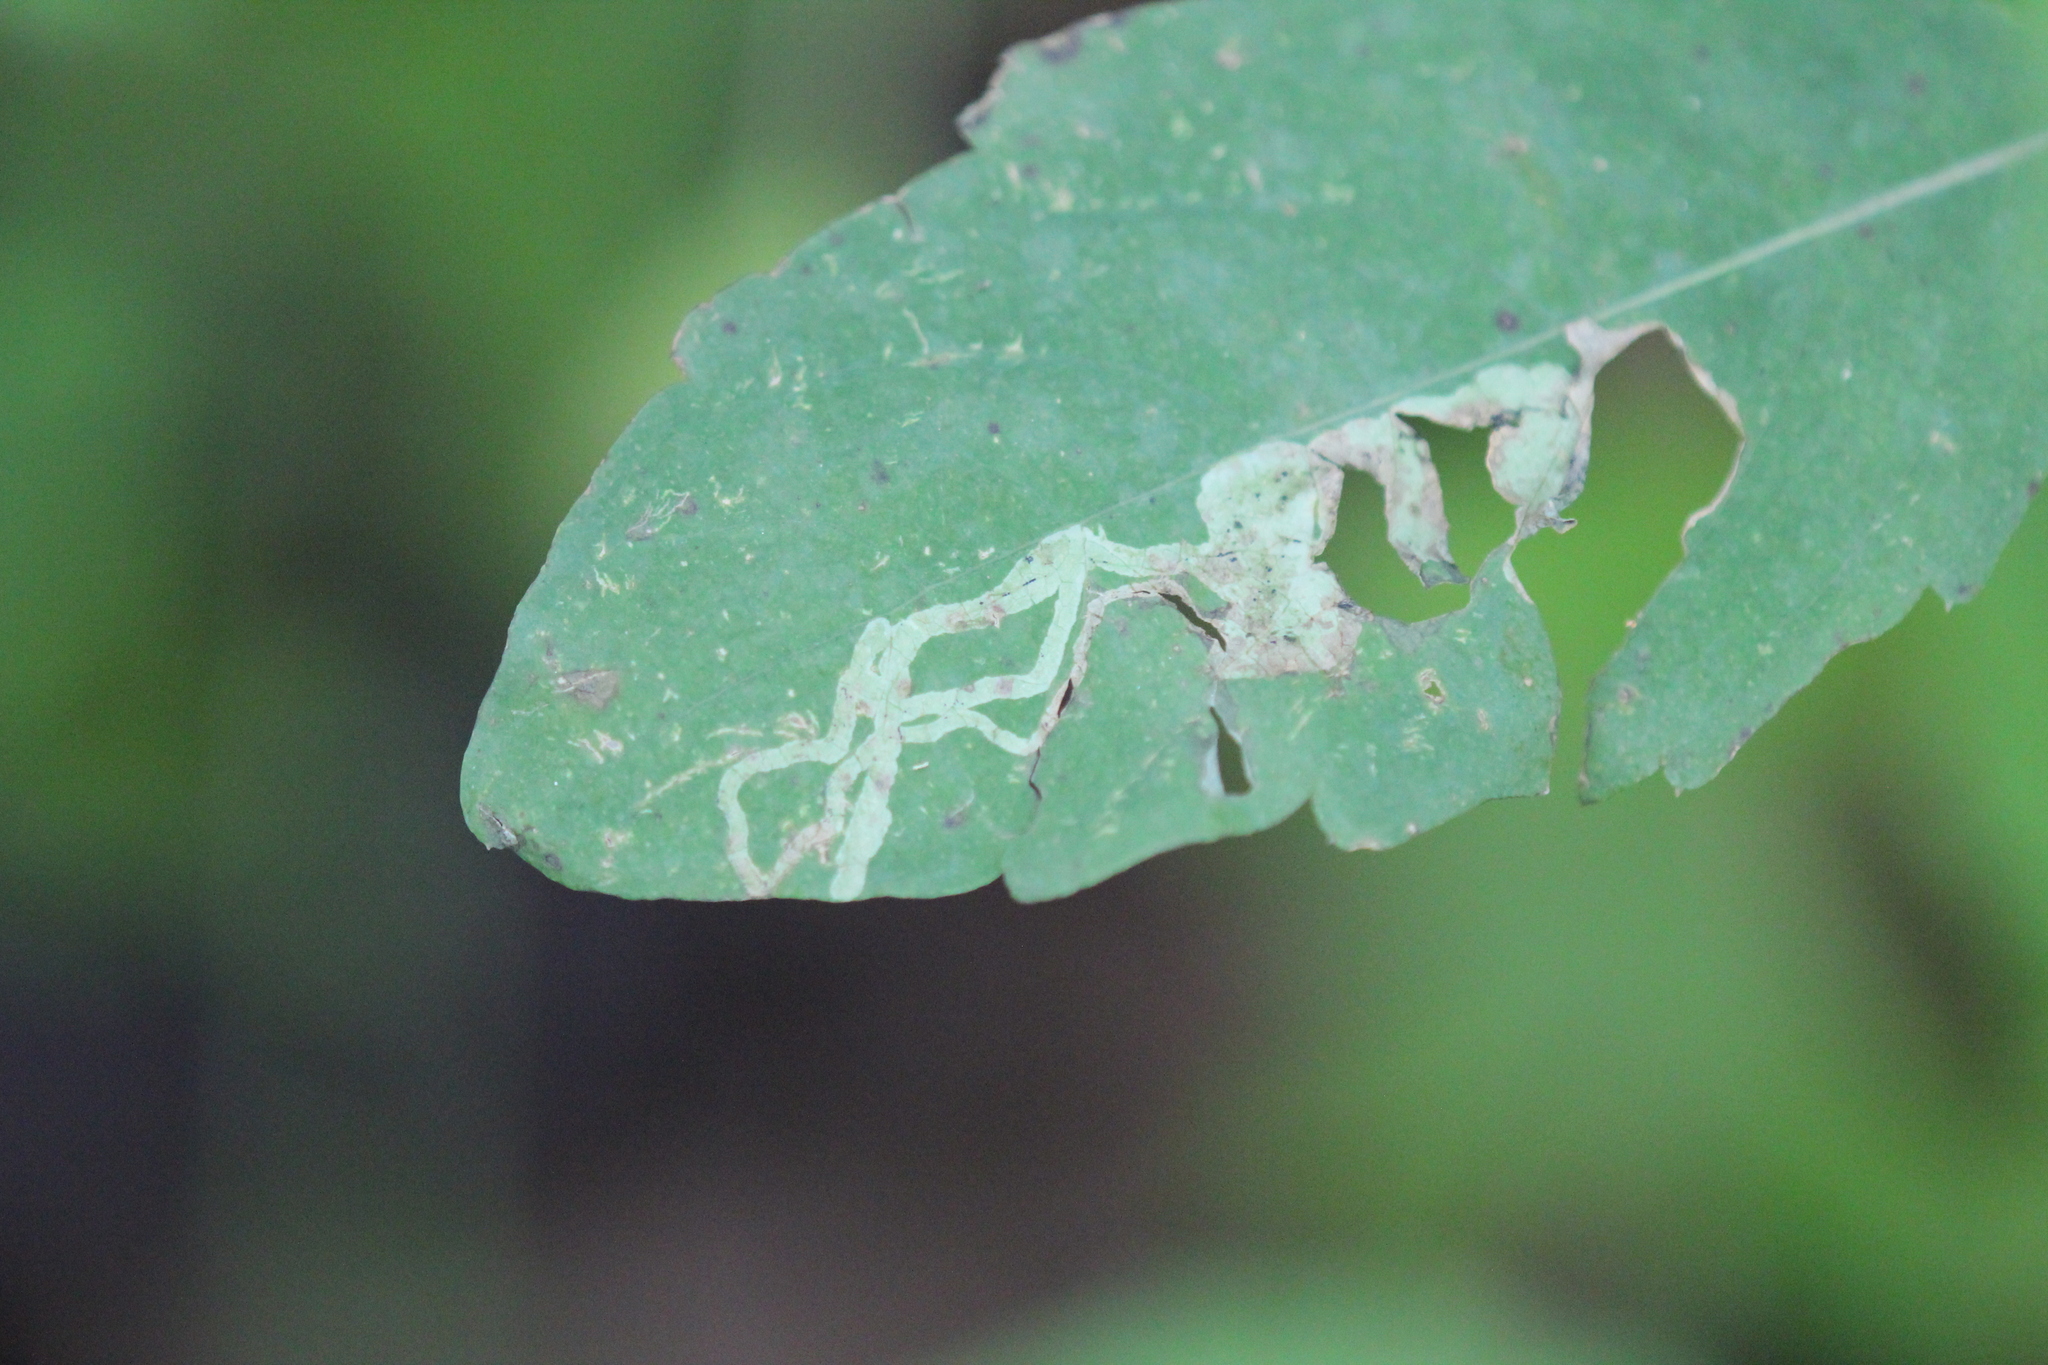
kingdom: Animalia
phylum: Arthropoda
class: Insecta
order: Diptera
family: Agromyzidae
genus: Phytoliriomyza
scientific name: Phytoliriomyza melampyga
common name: Jewelweed leaf-miner fly
